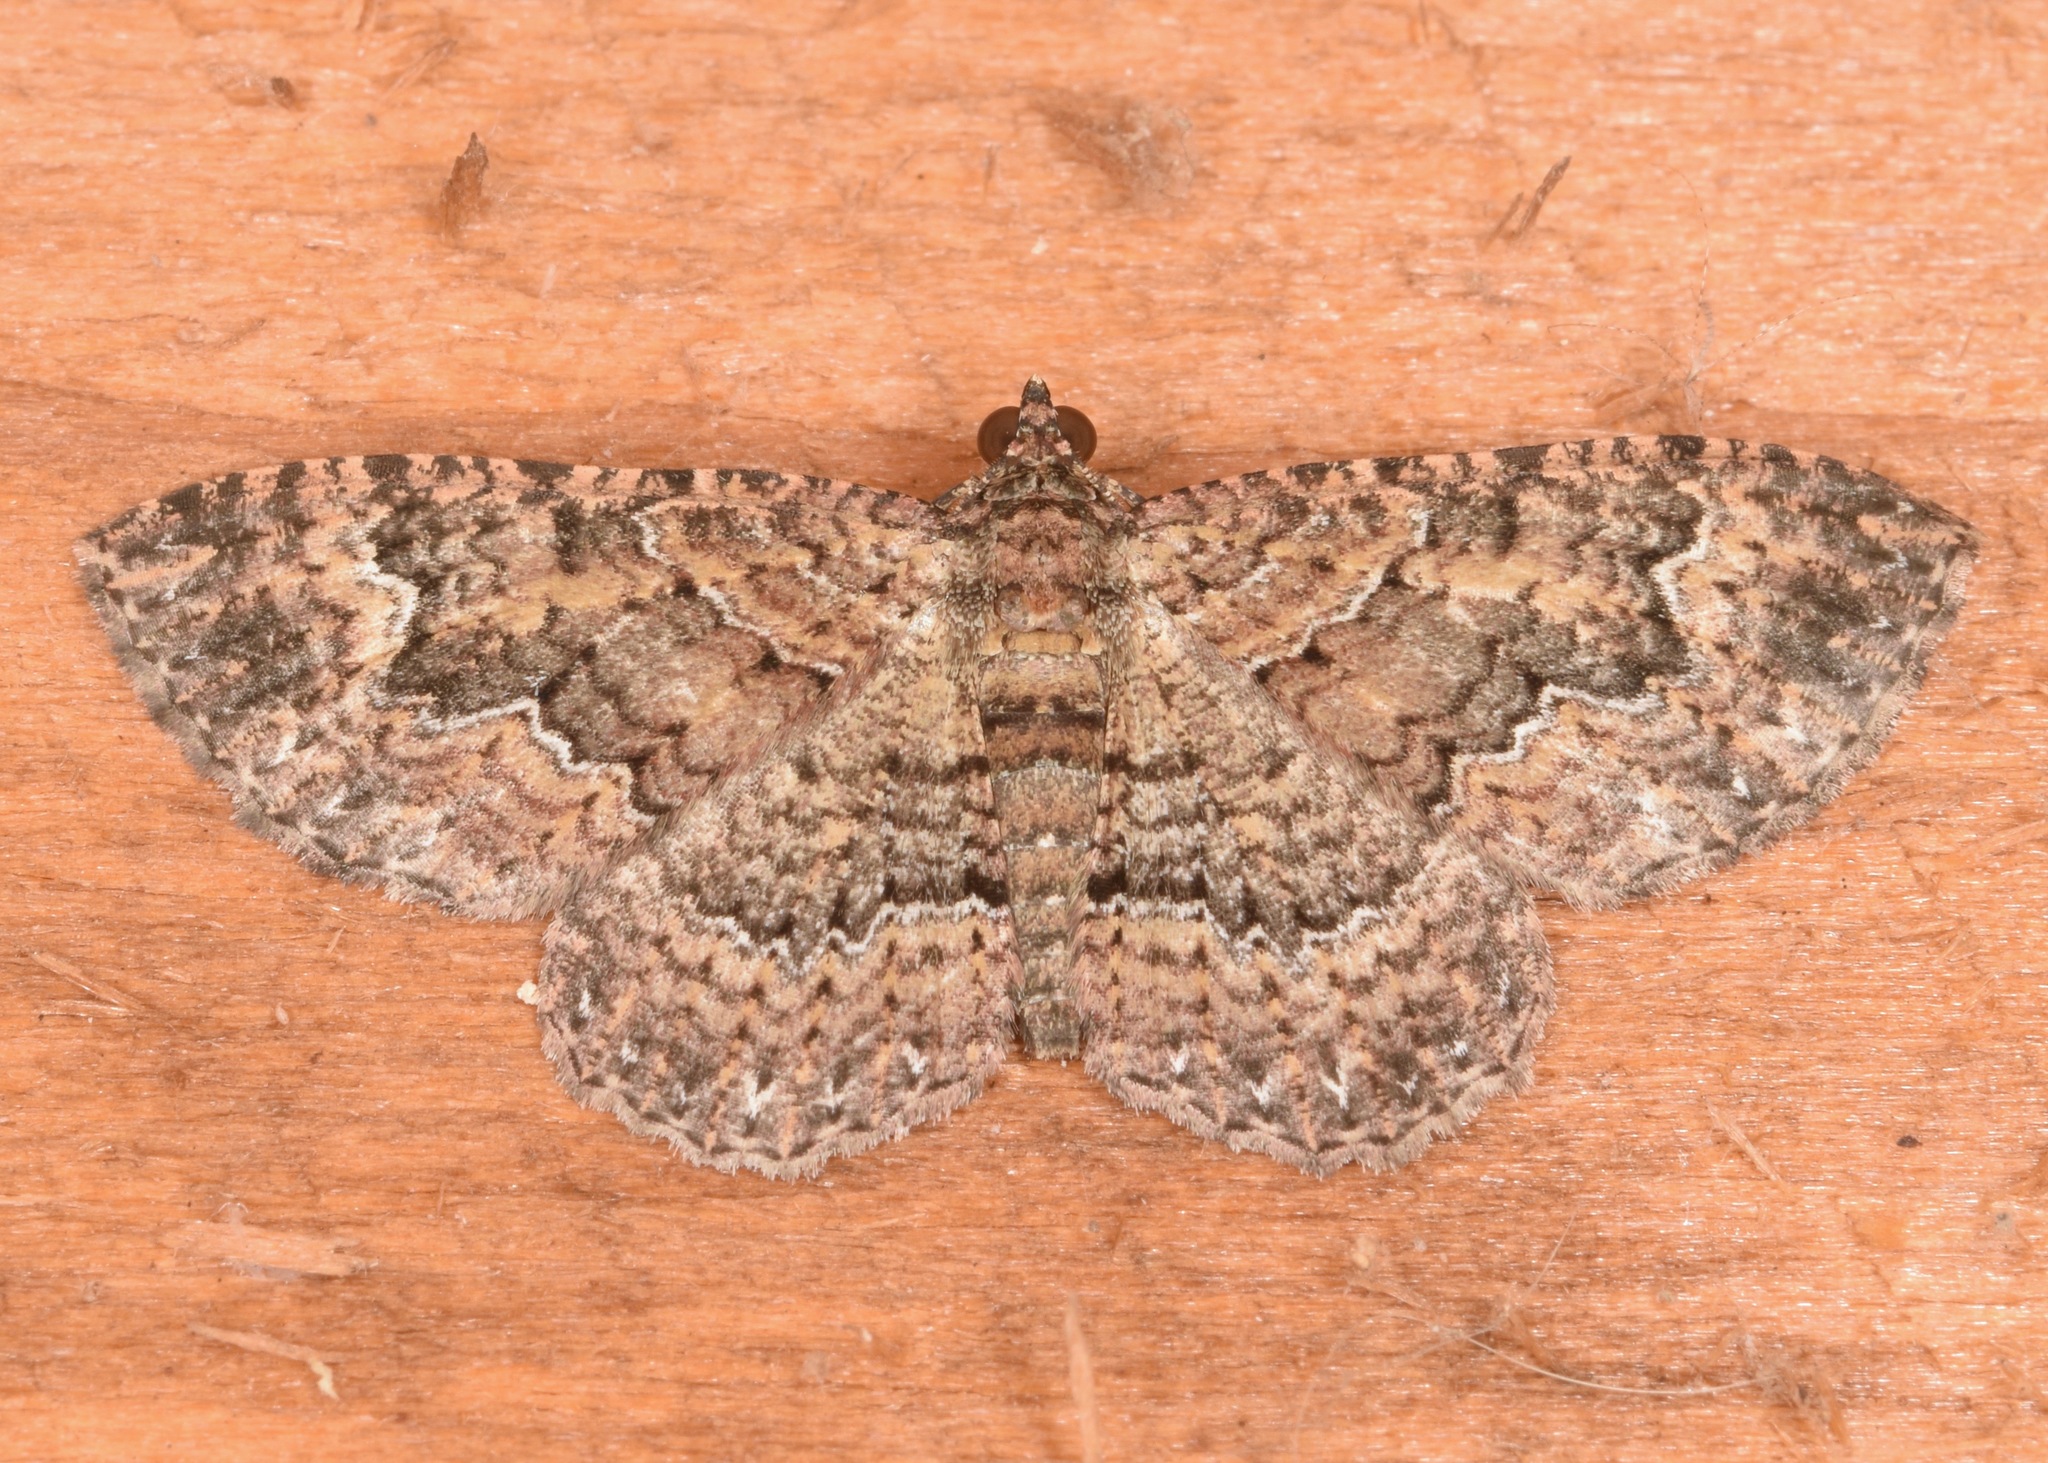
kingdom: Animalia
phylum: Arthropoda
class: Insecta
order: Lepidoptera
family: Geometridae
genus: Disclisioprocta
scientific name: Disclisioprocta stellata
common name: Somber carpet
